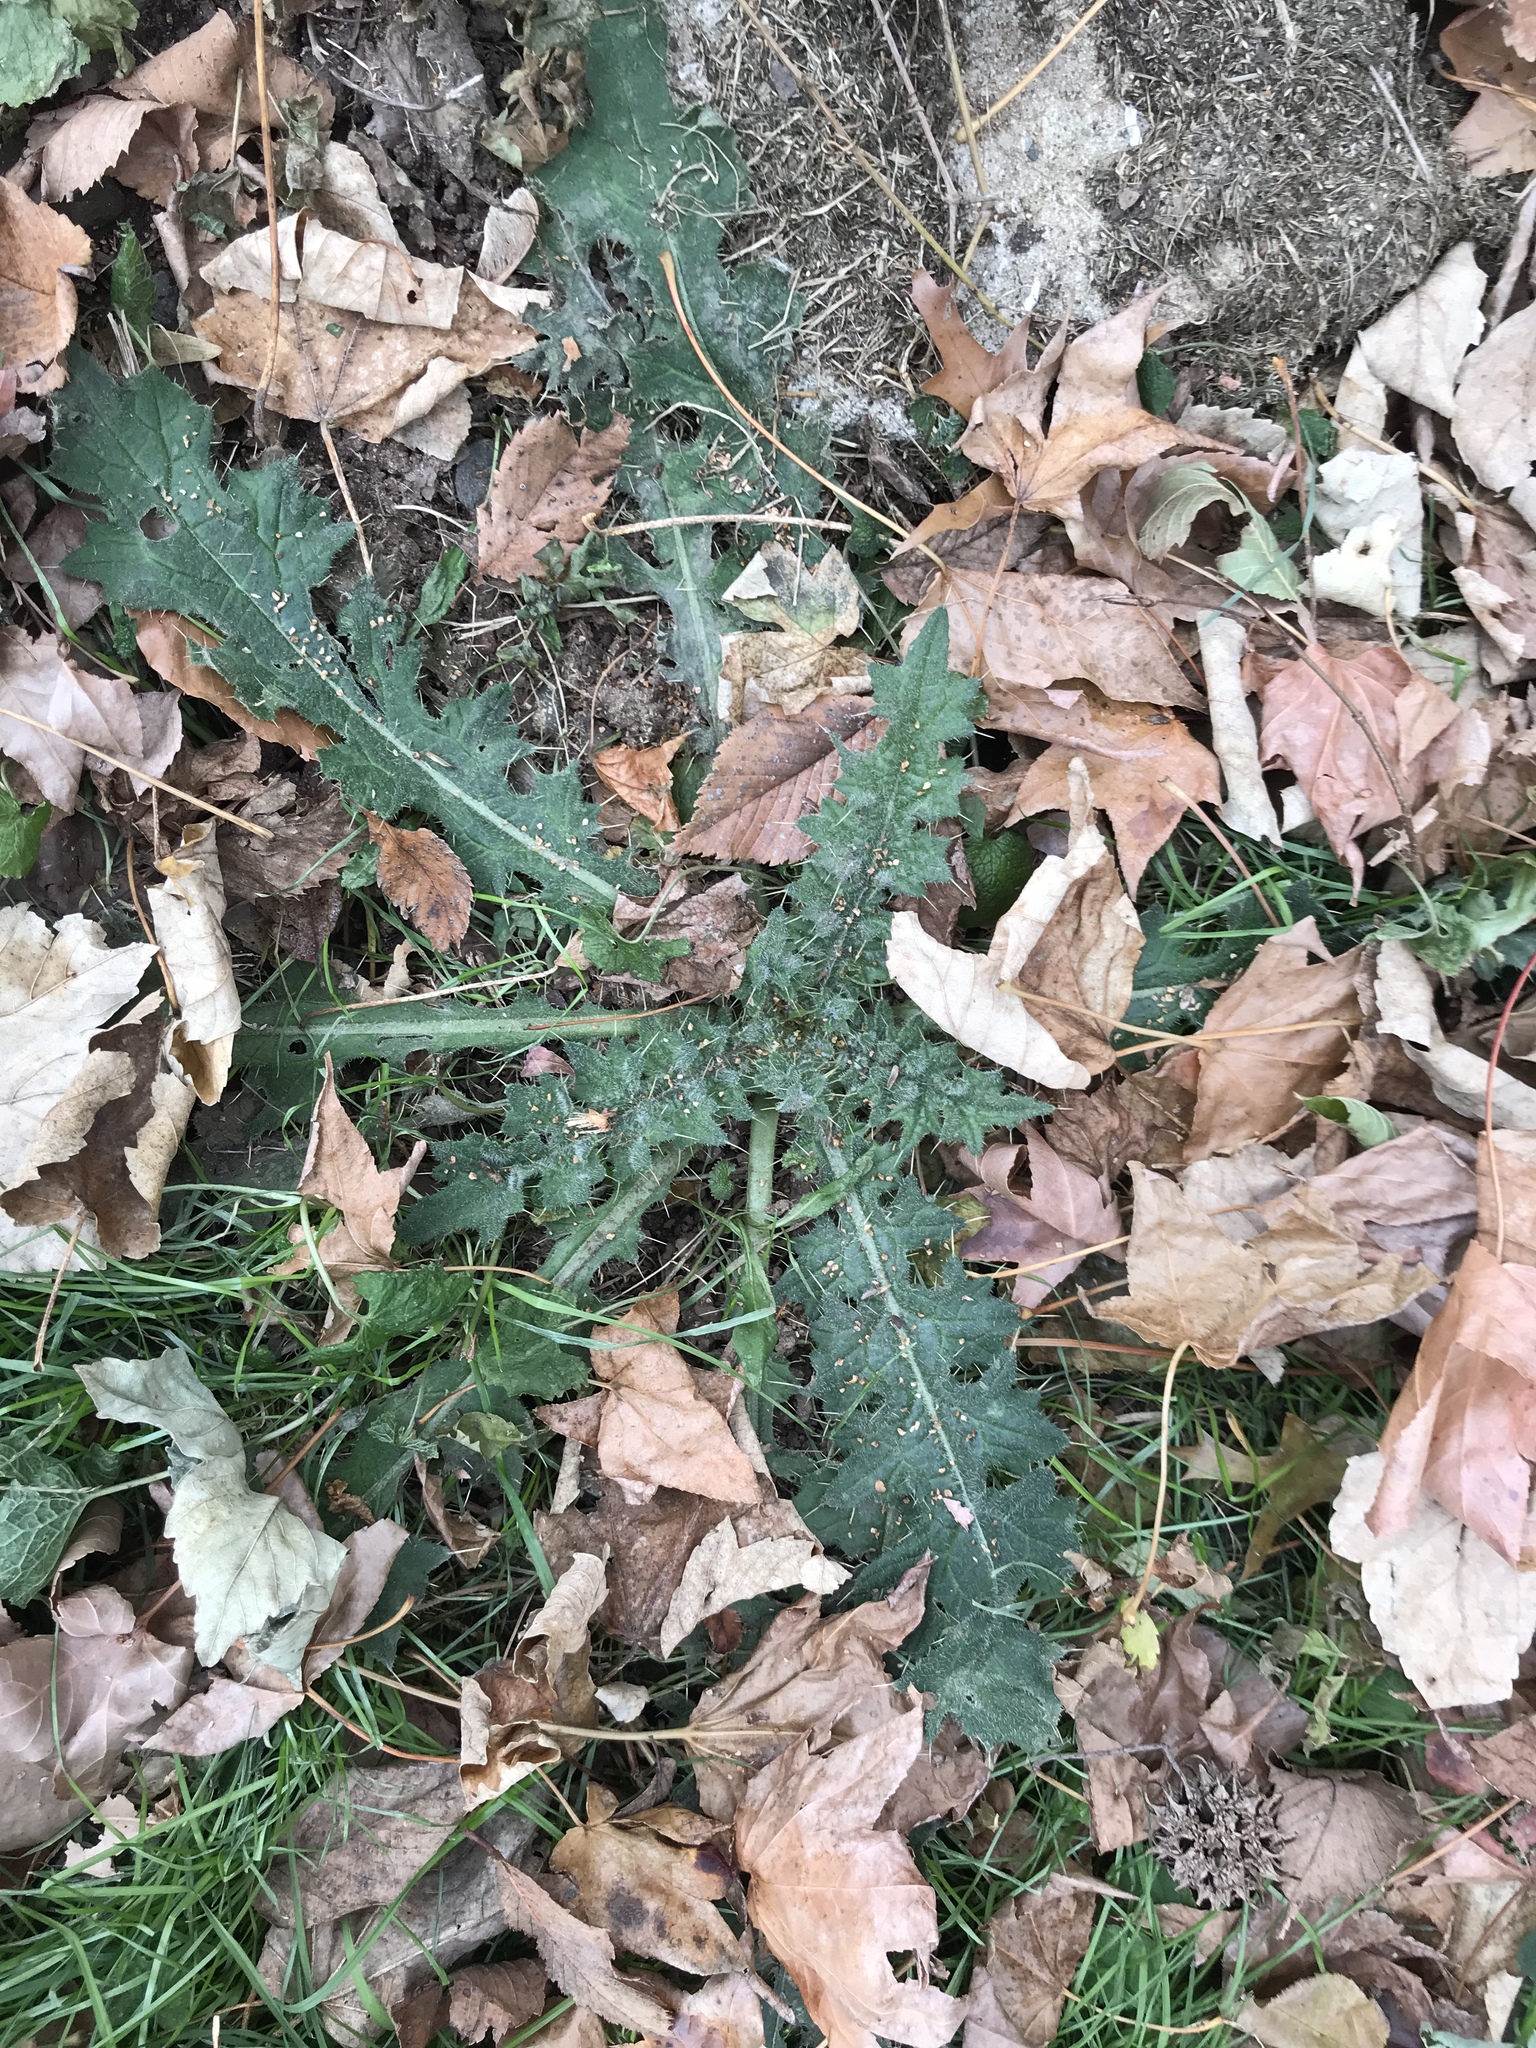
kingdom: Plantae
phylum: Tracheophyta
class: Magnoliopsida
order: Asterales
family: Asteraceae
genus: Cirsium
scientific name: Cirsium vulgare
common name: Bull thistle
